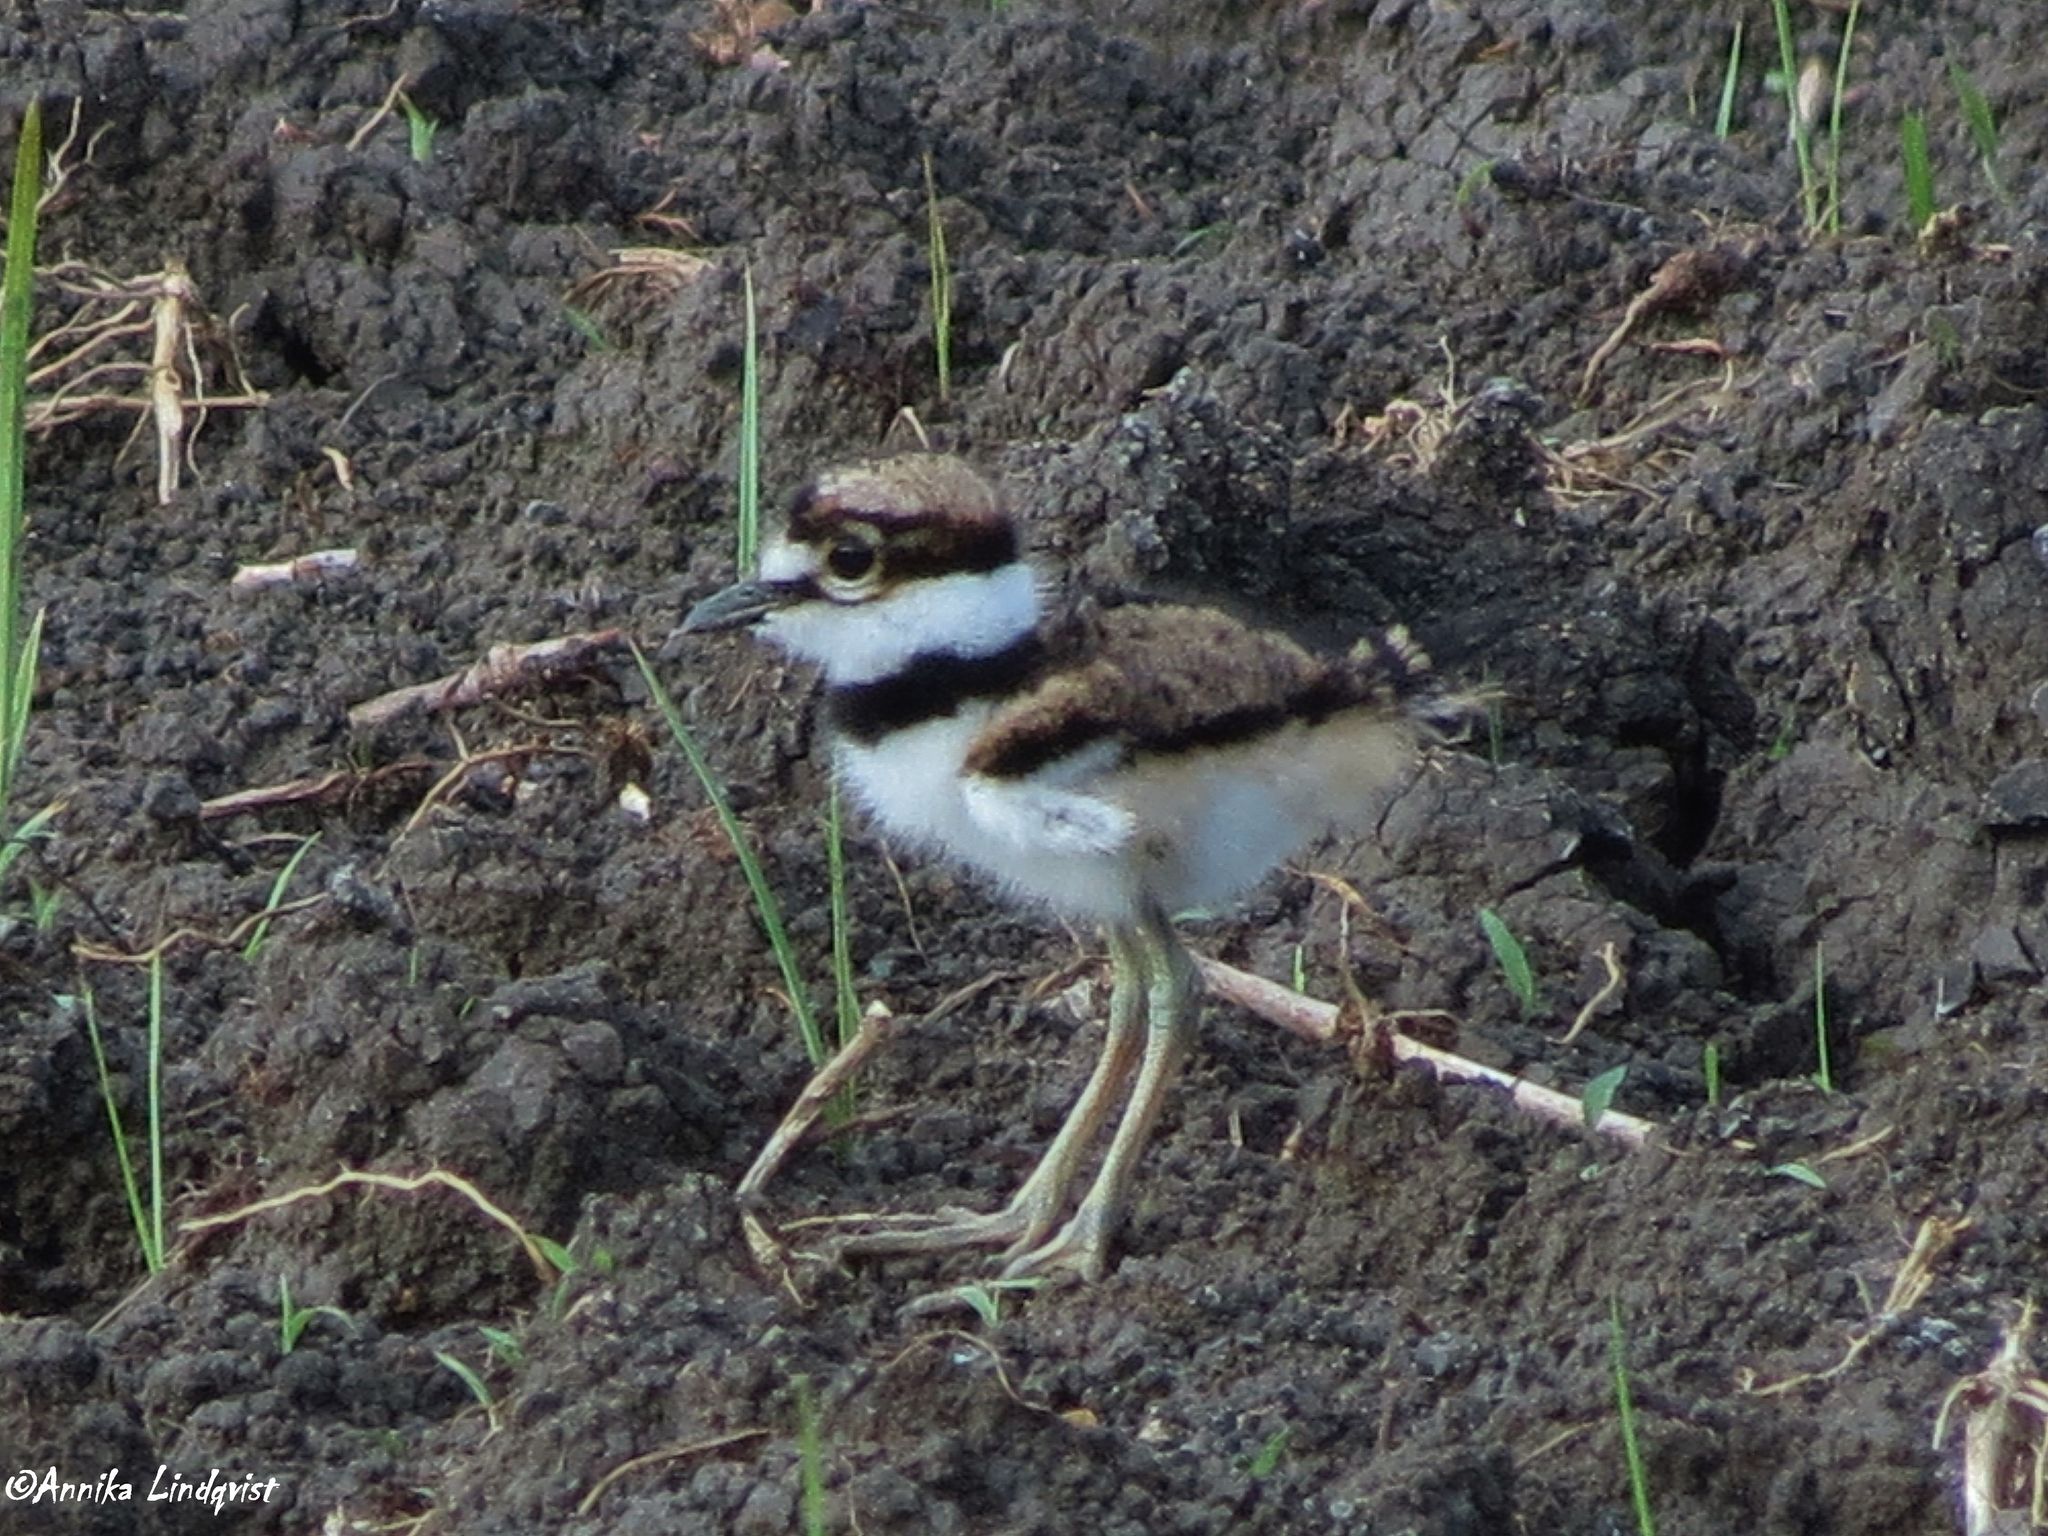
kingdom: Animalia
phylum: Chordata
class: Aves
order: Charadriiformes
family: Charadriidae
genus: Charadrius
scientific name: Charadrius vociferus
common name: Killdeer
